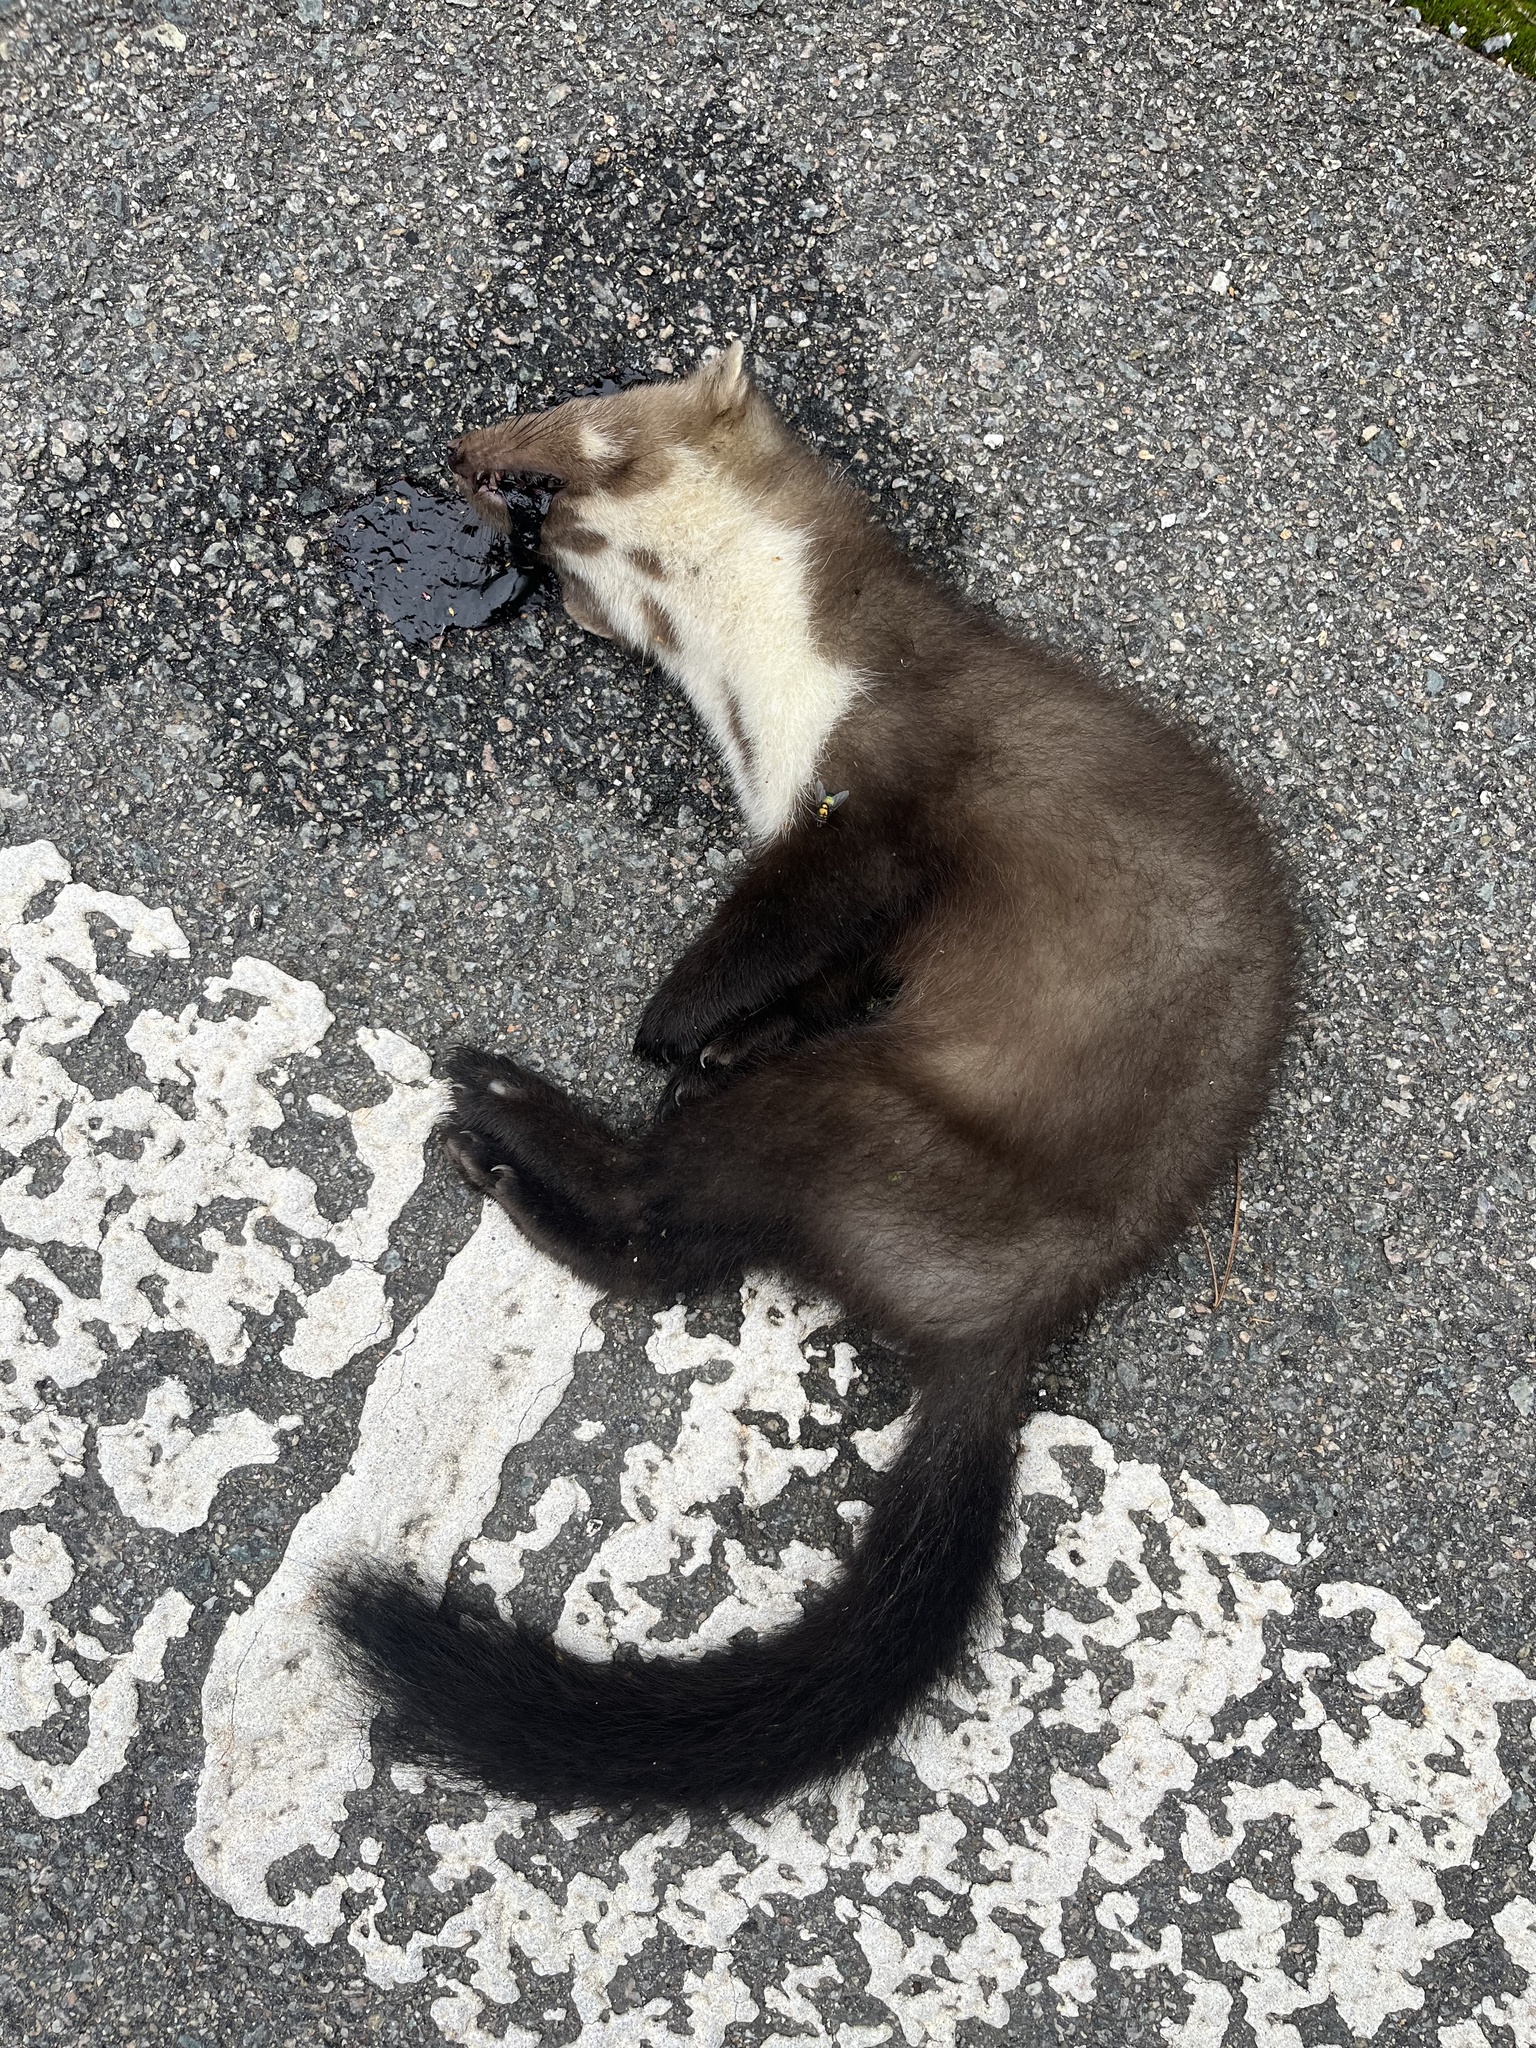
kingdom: Animalia
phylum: Chordata
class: Mammalia
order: Carnivora
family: Mustelidae
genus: Martes
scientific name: Martes foina
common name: Beech marten
